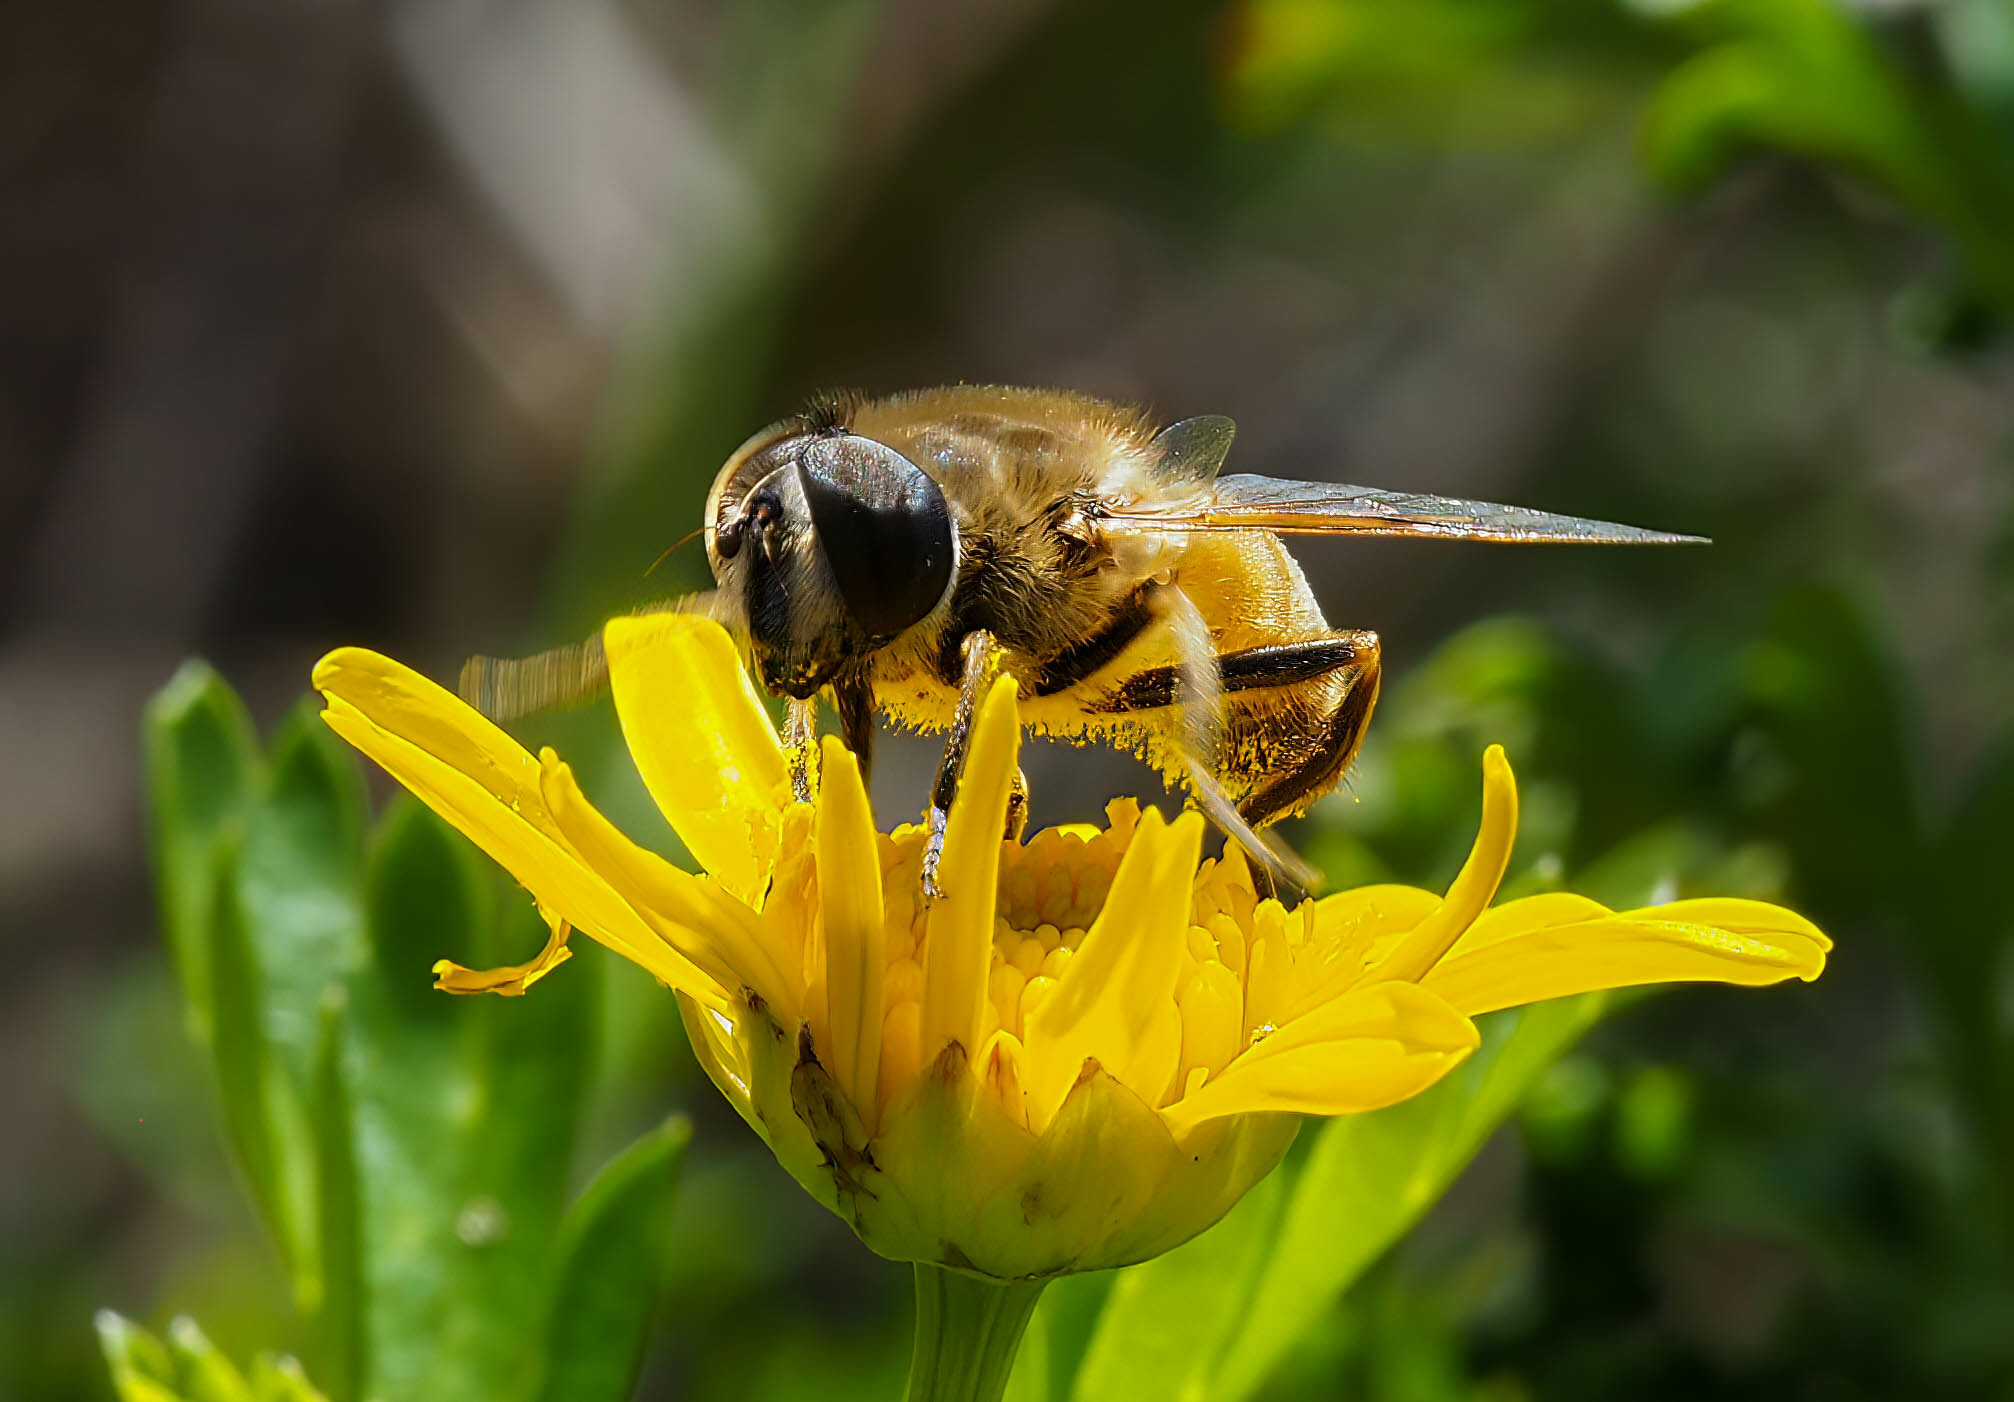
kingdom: Animalia
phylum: Arthropoda
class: Insecta
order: Diptera
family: Syrphidae
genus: Eristalis
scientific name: Eristalis tenax
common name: Drone fly
